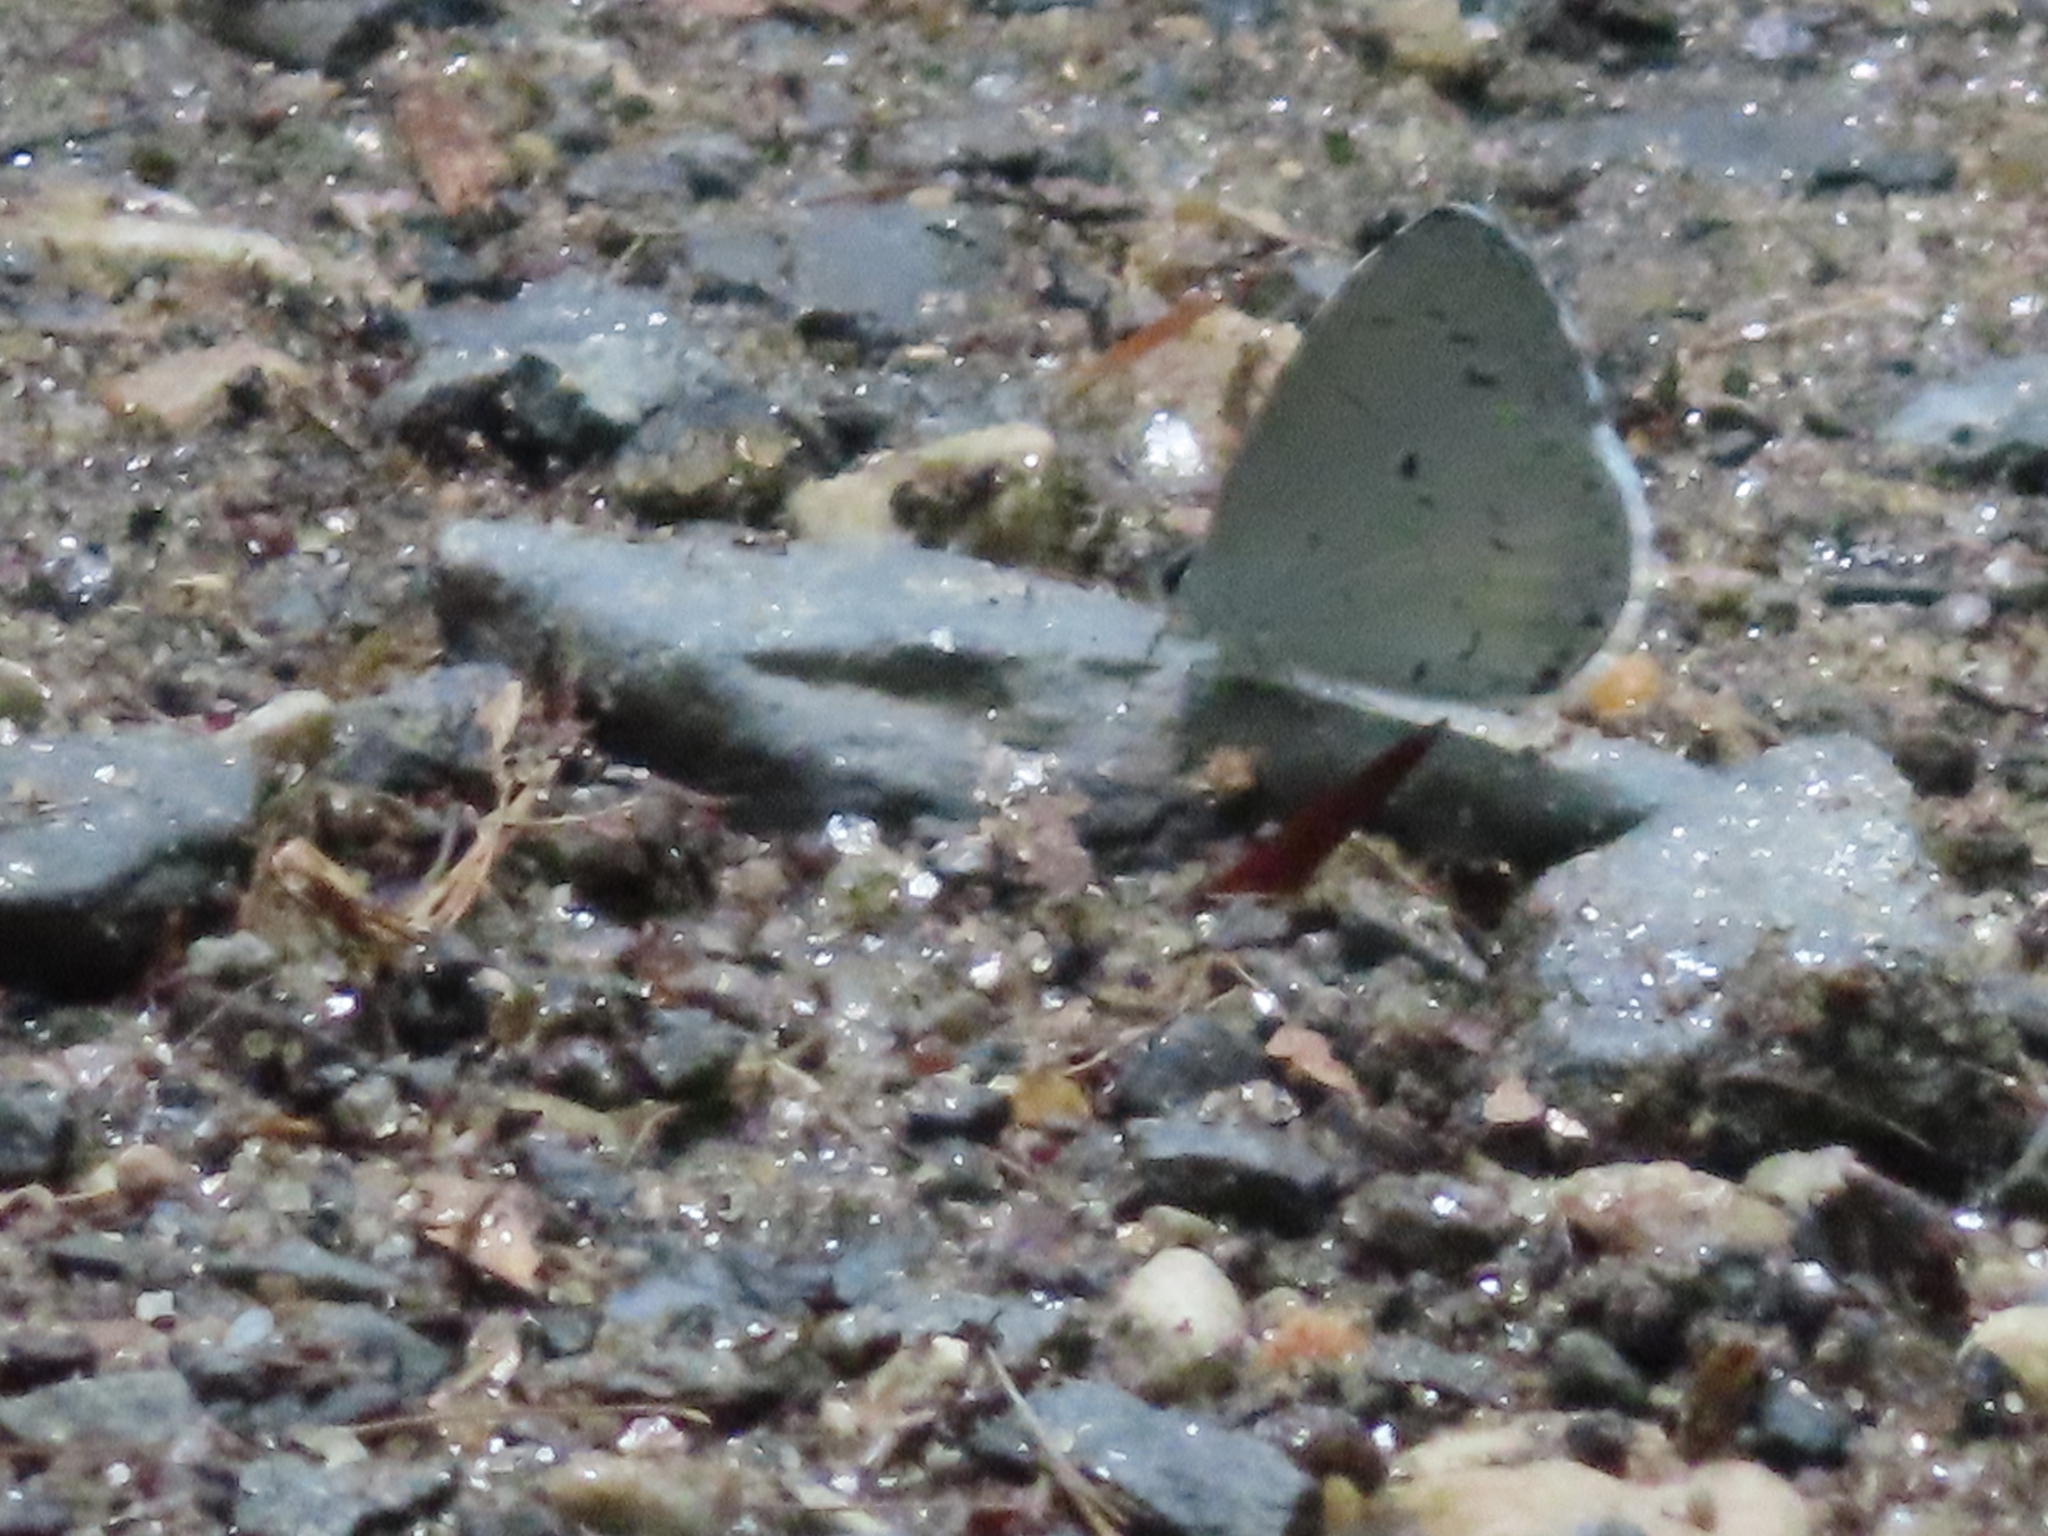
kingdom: Animalia
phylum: Arthropoda
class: Insecta
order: Lepidoptera
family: Lycaenidae
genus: Cyaniris
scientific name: Cyaniris neglecta
